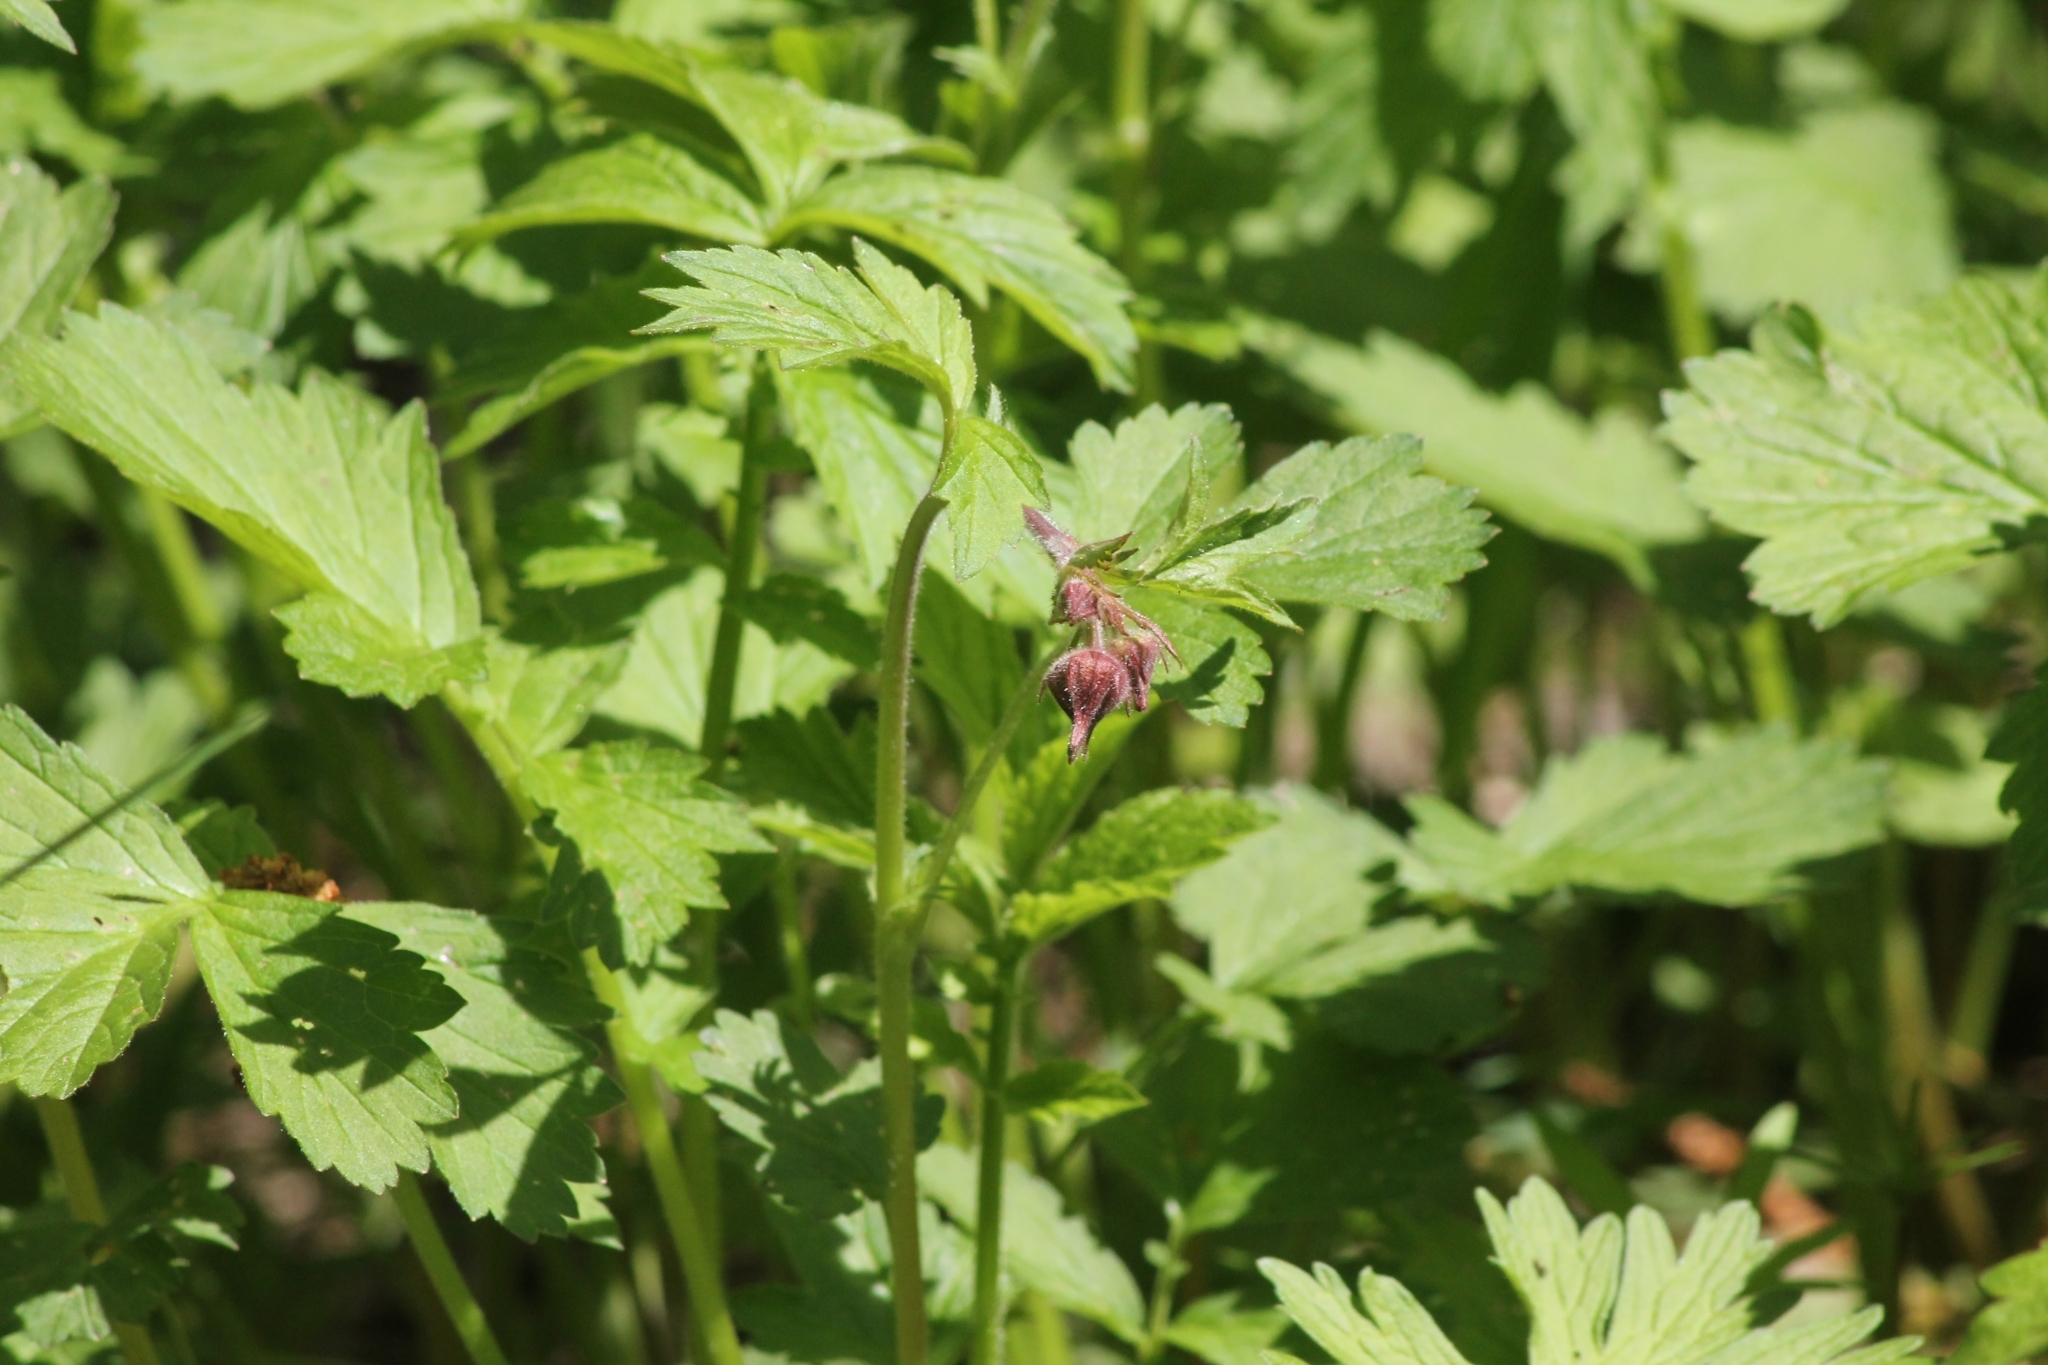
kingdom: Plantae
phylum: Tracheophyta
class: Magnoliopsida
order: Rosales
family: Rosaceae
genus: Geum
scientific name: Geum rivale
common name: Water avens
